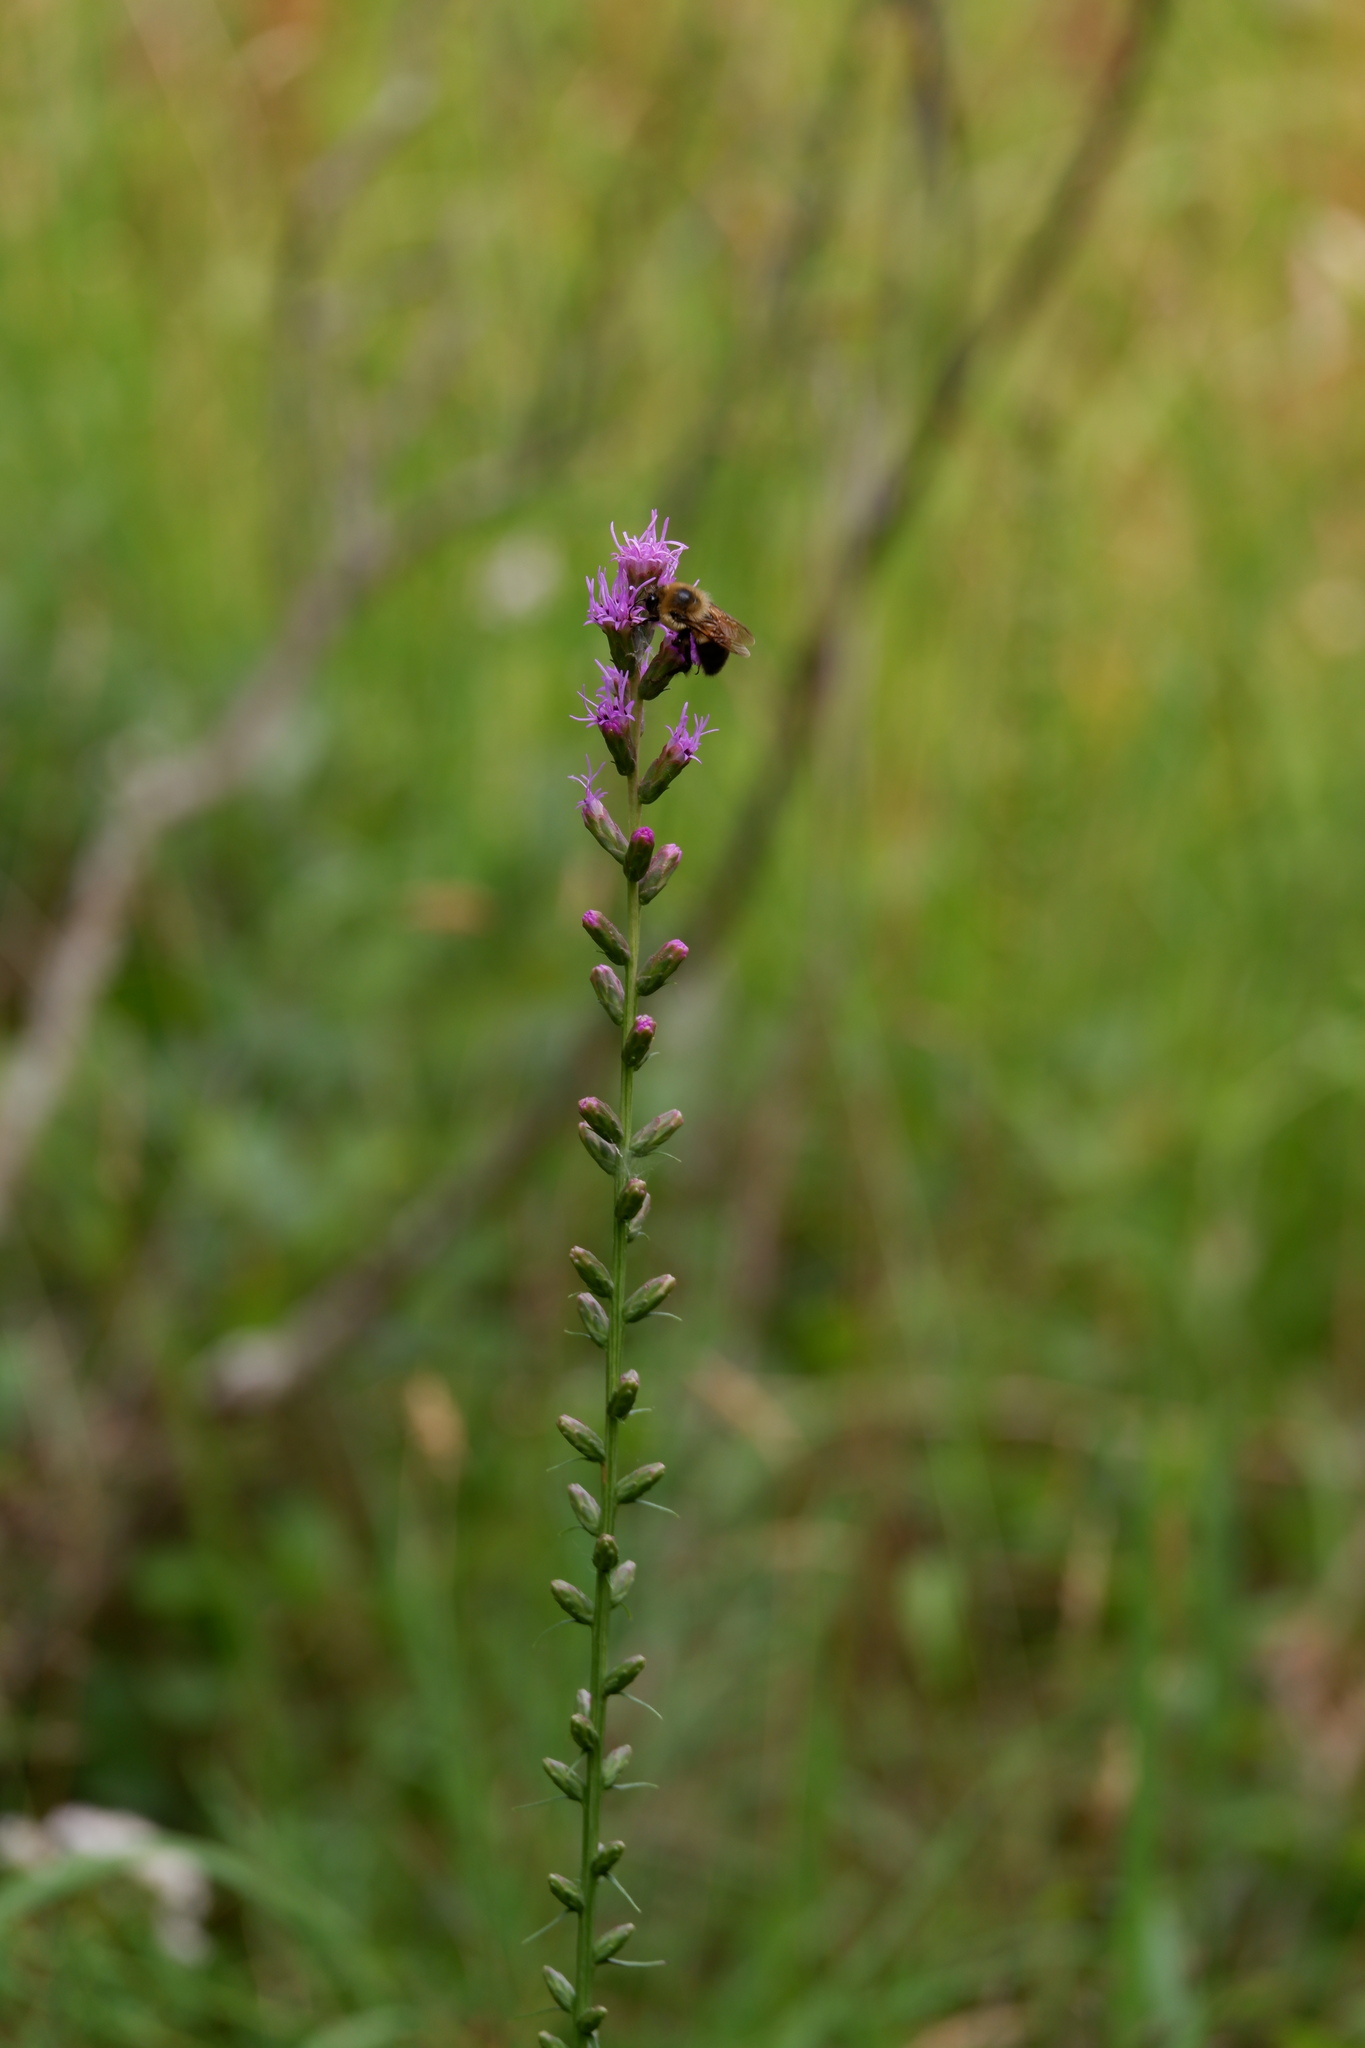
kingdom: Plantae
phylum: Tracheophyta
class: Magnoliopsida
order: Asterales
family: Asteraceae
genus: Liatris
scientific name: Liatris spicata
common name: Florist gayfeather
